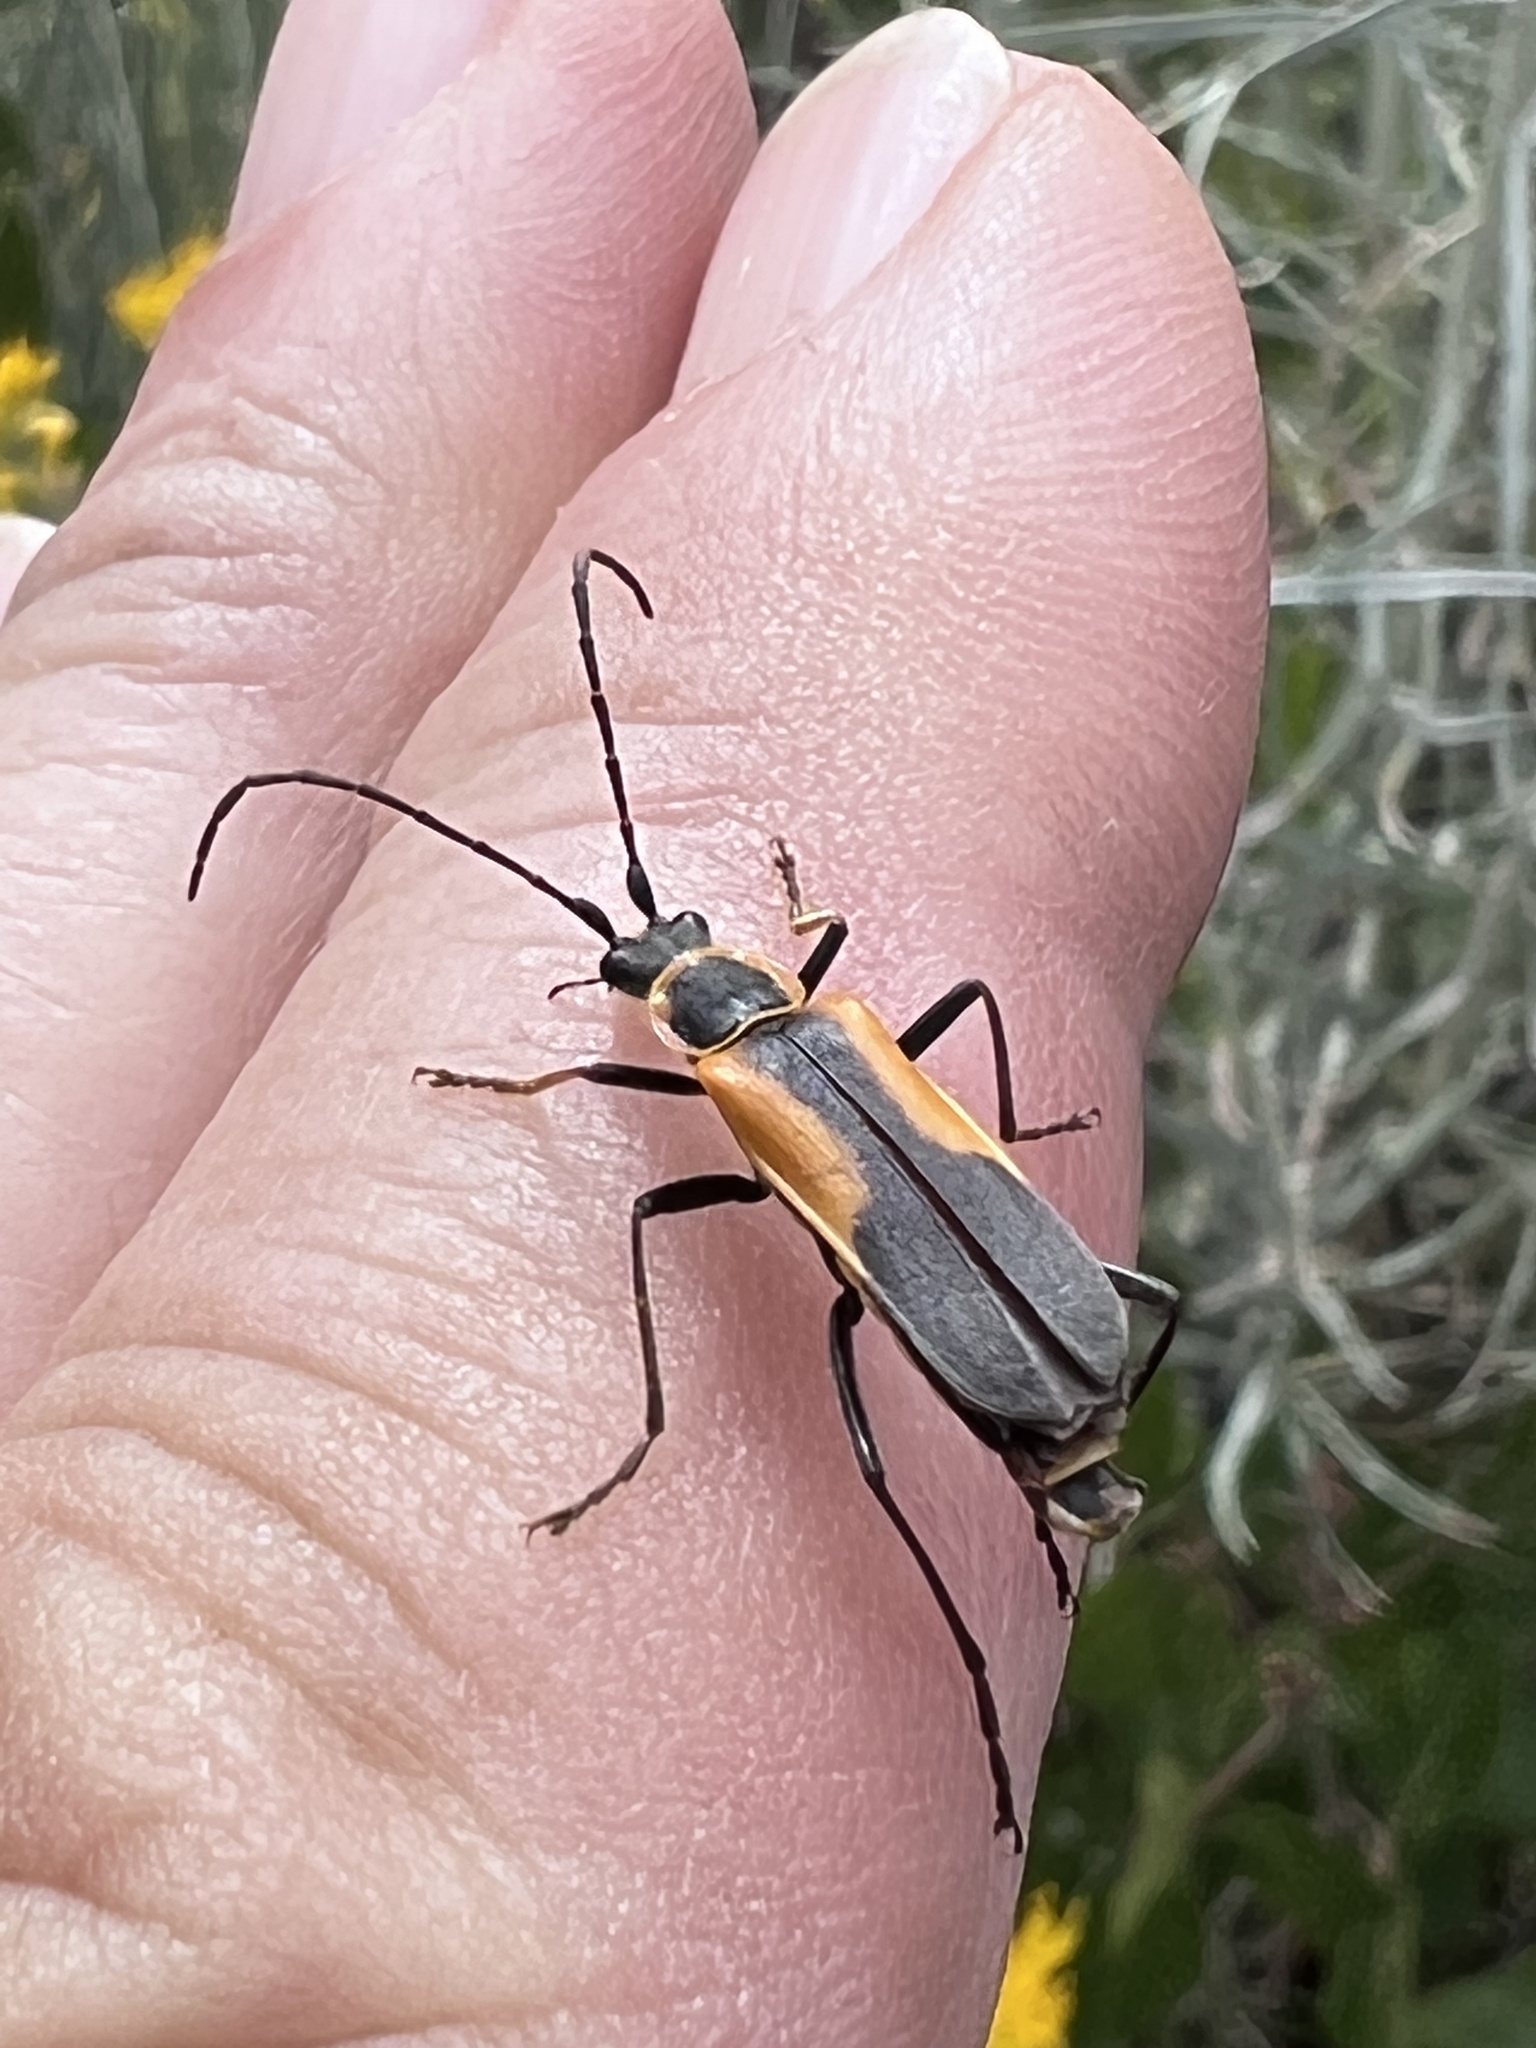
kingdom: Animalia
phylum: Arthropoda
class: Insecta
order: Coleoptera
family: Cantharidae
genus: Chauliognathus
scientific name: Chauliognathus limbicollis
